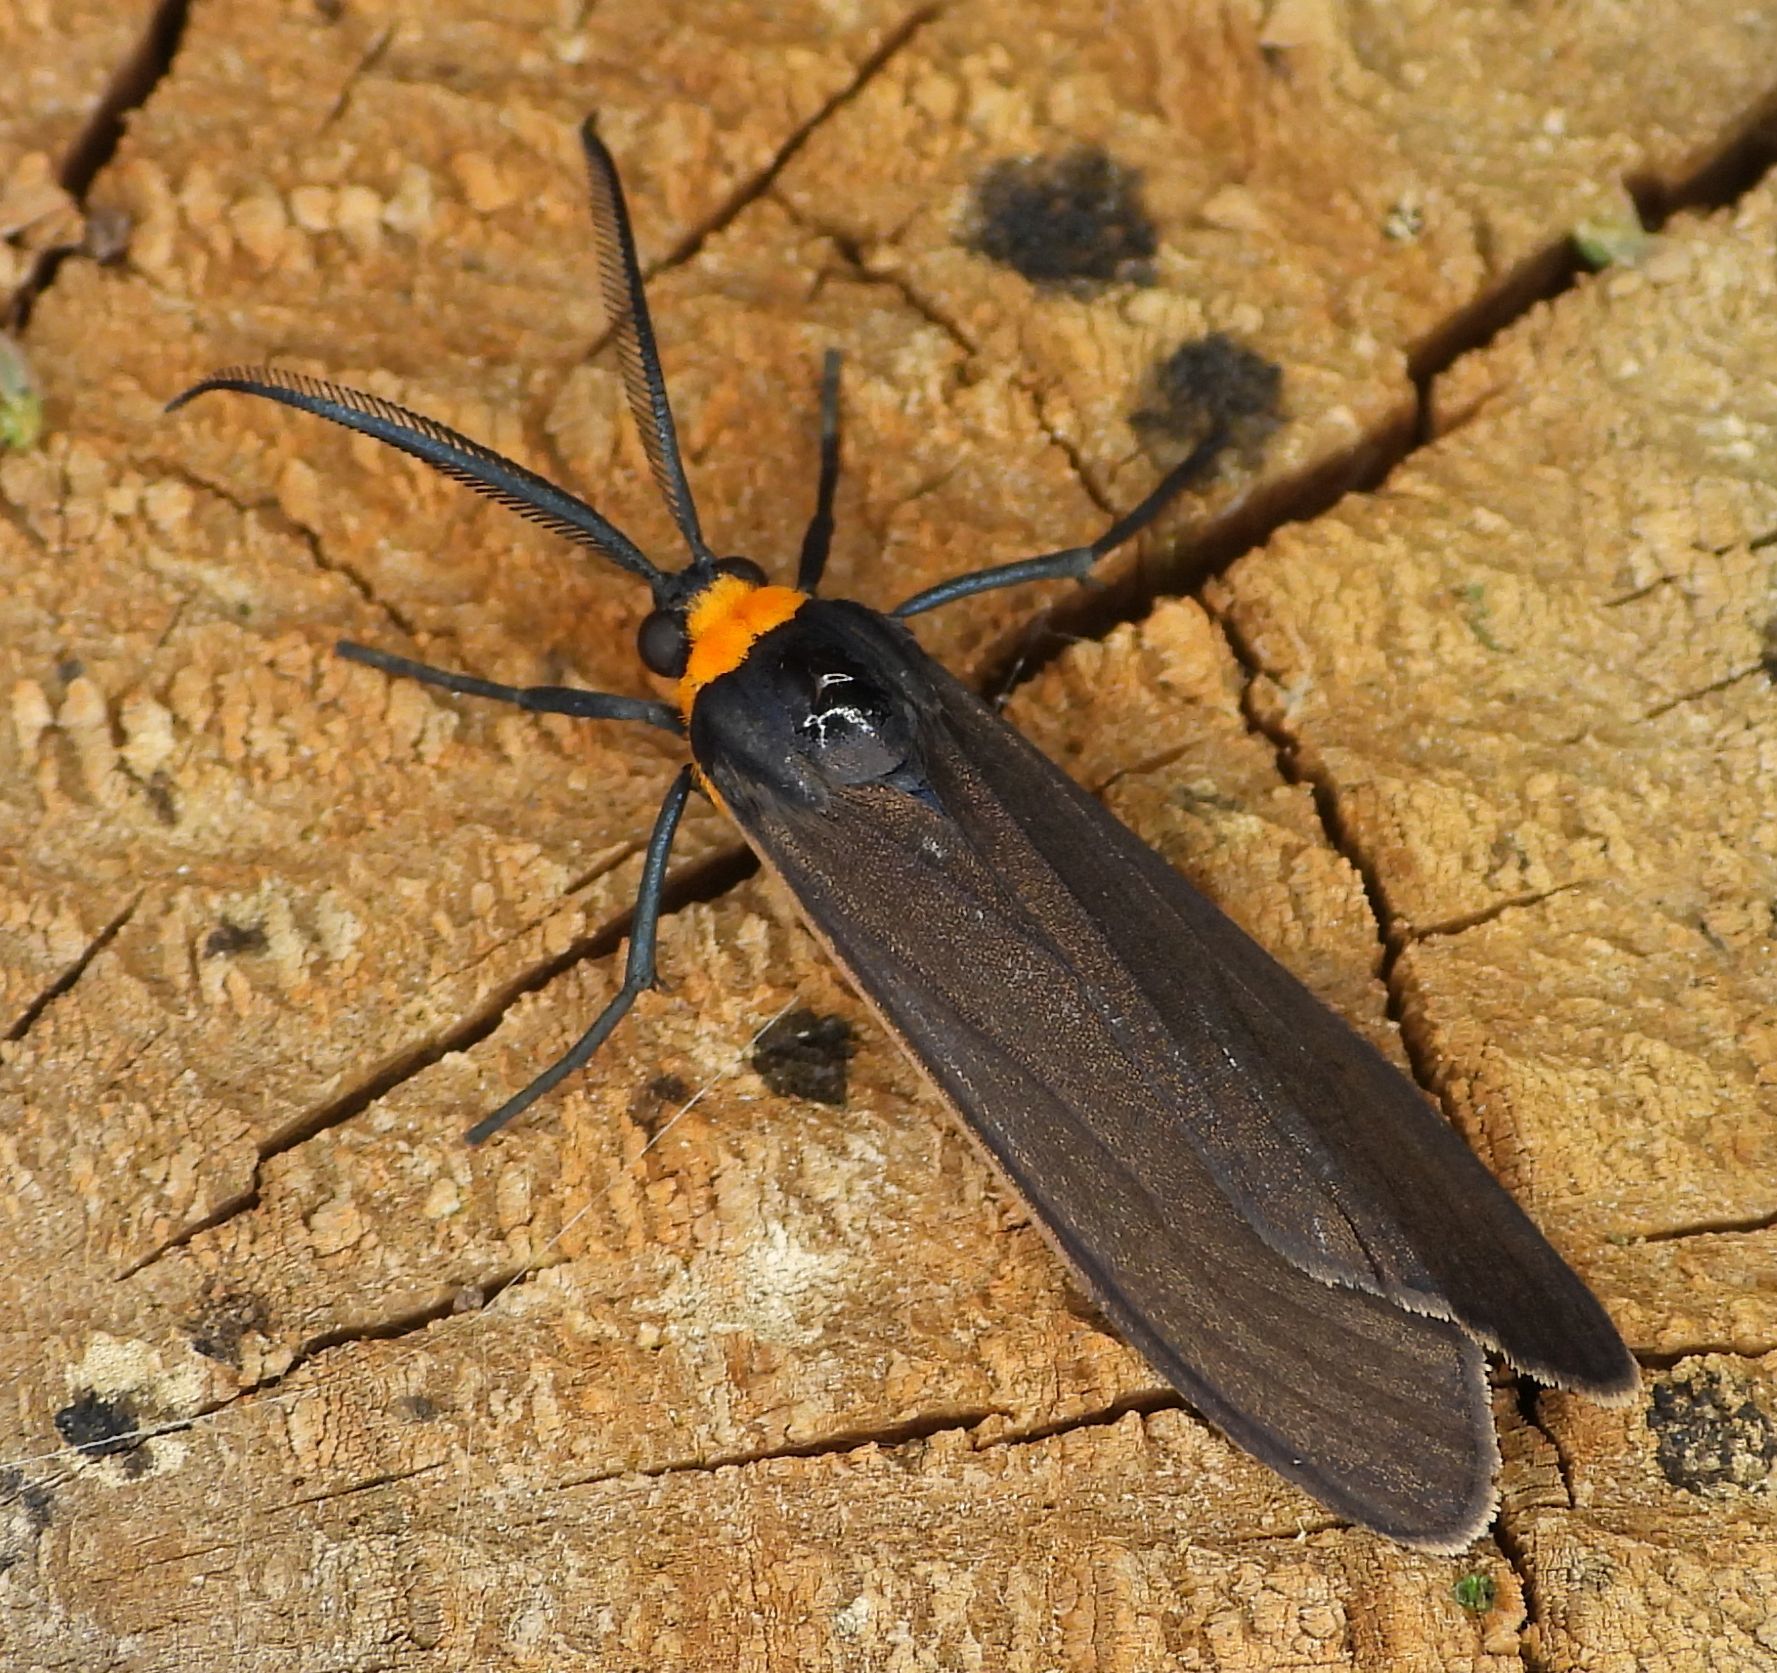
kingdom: Animalia
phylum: Arthropoda
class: Insecta
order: Lepidoptera
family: Erebidae
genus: Cisseps
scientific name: Cisseps fulvicollis
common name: Yellow-collared scape moth
